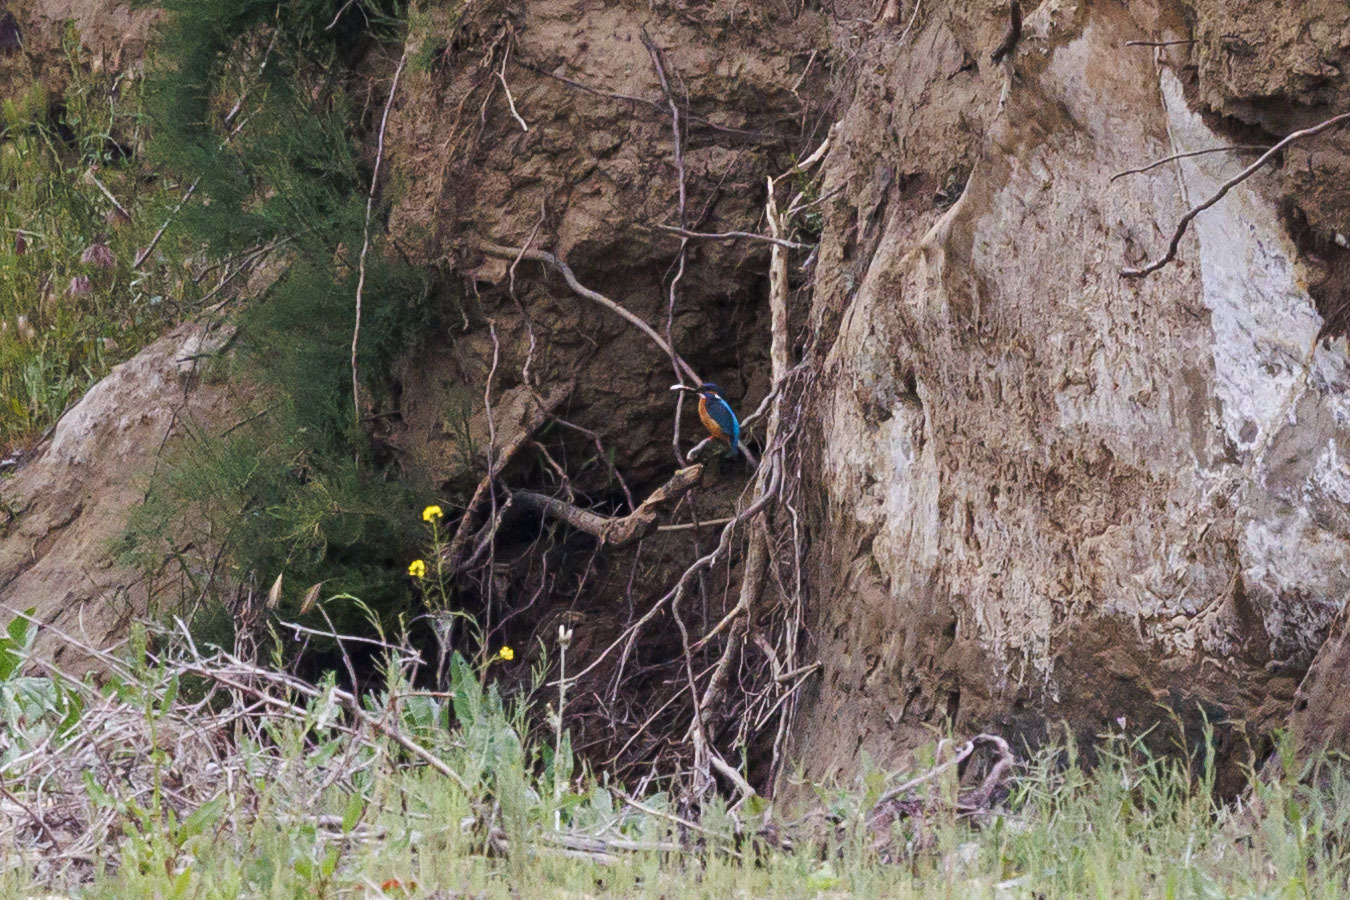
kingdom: Animalia
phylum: Chordata
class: Aves
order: Coraciiformes
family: Alcedinidae
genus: Alcedo
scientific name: Alcedo atthis
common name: Common kingfisher
